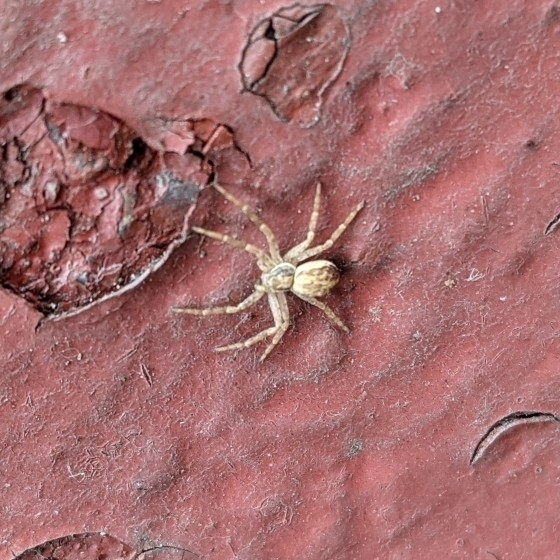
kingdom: Animalia
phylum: Arthropoda
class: Arachnida
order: Araneae
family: Philodromidae
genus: Philodromus
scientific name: Philodromus dispar
